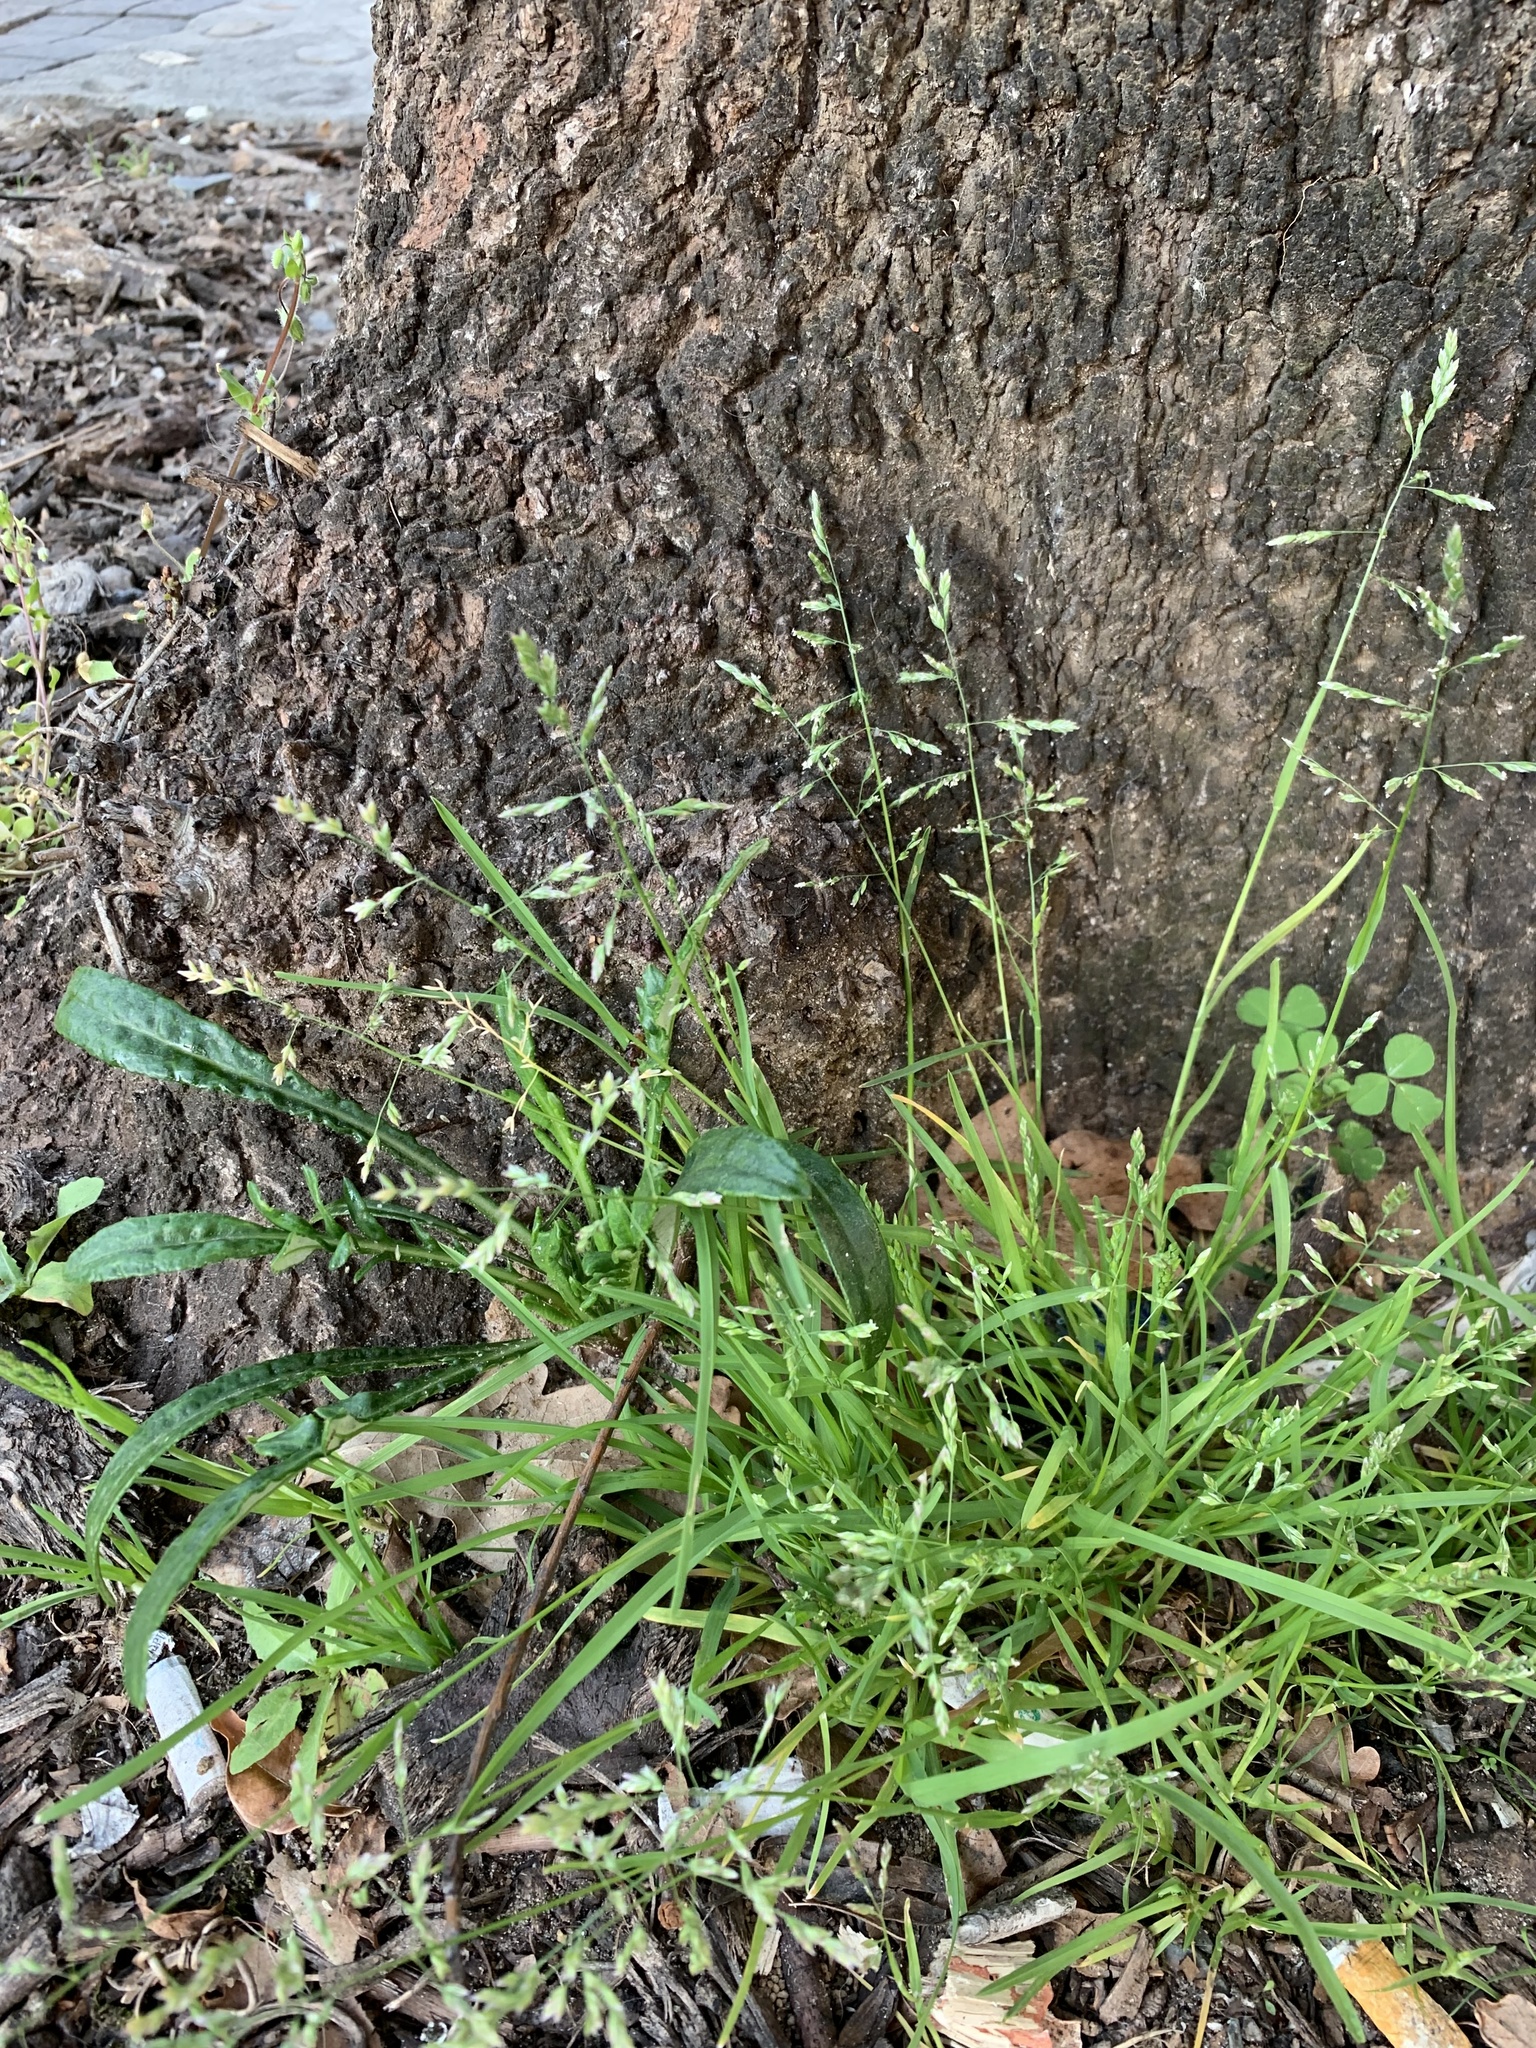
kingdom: Plantae
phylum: Tracheophyta
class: Liliopsida
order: Poales
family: Poaceae
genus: Poa
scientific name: Poa annua
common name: Annual bluegrass
